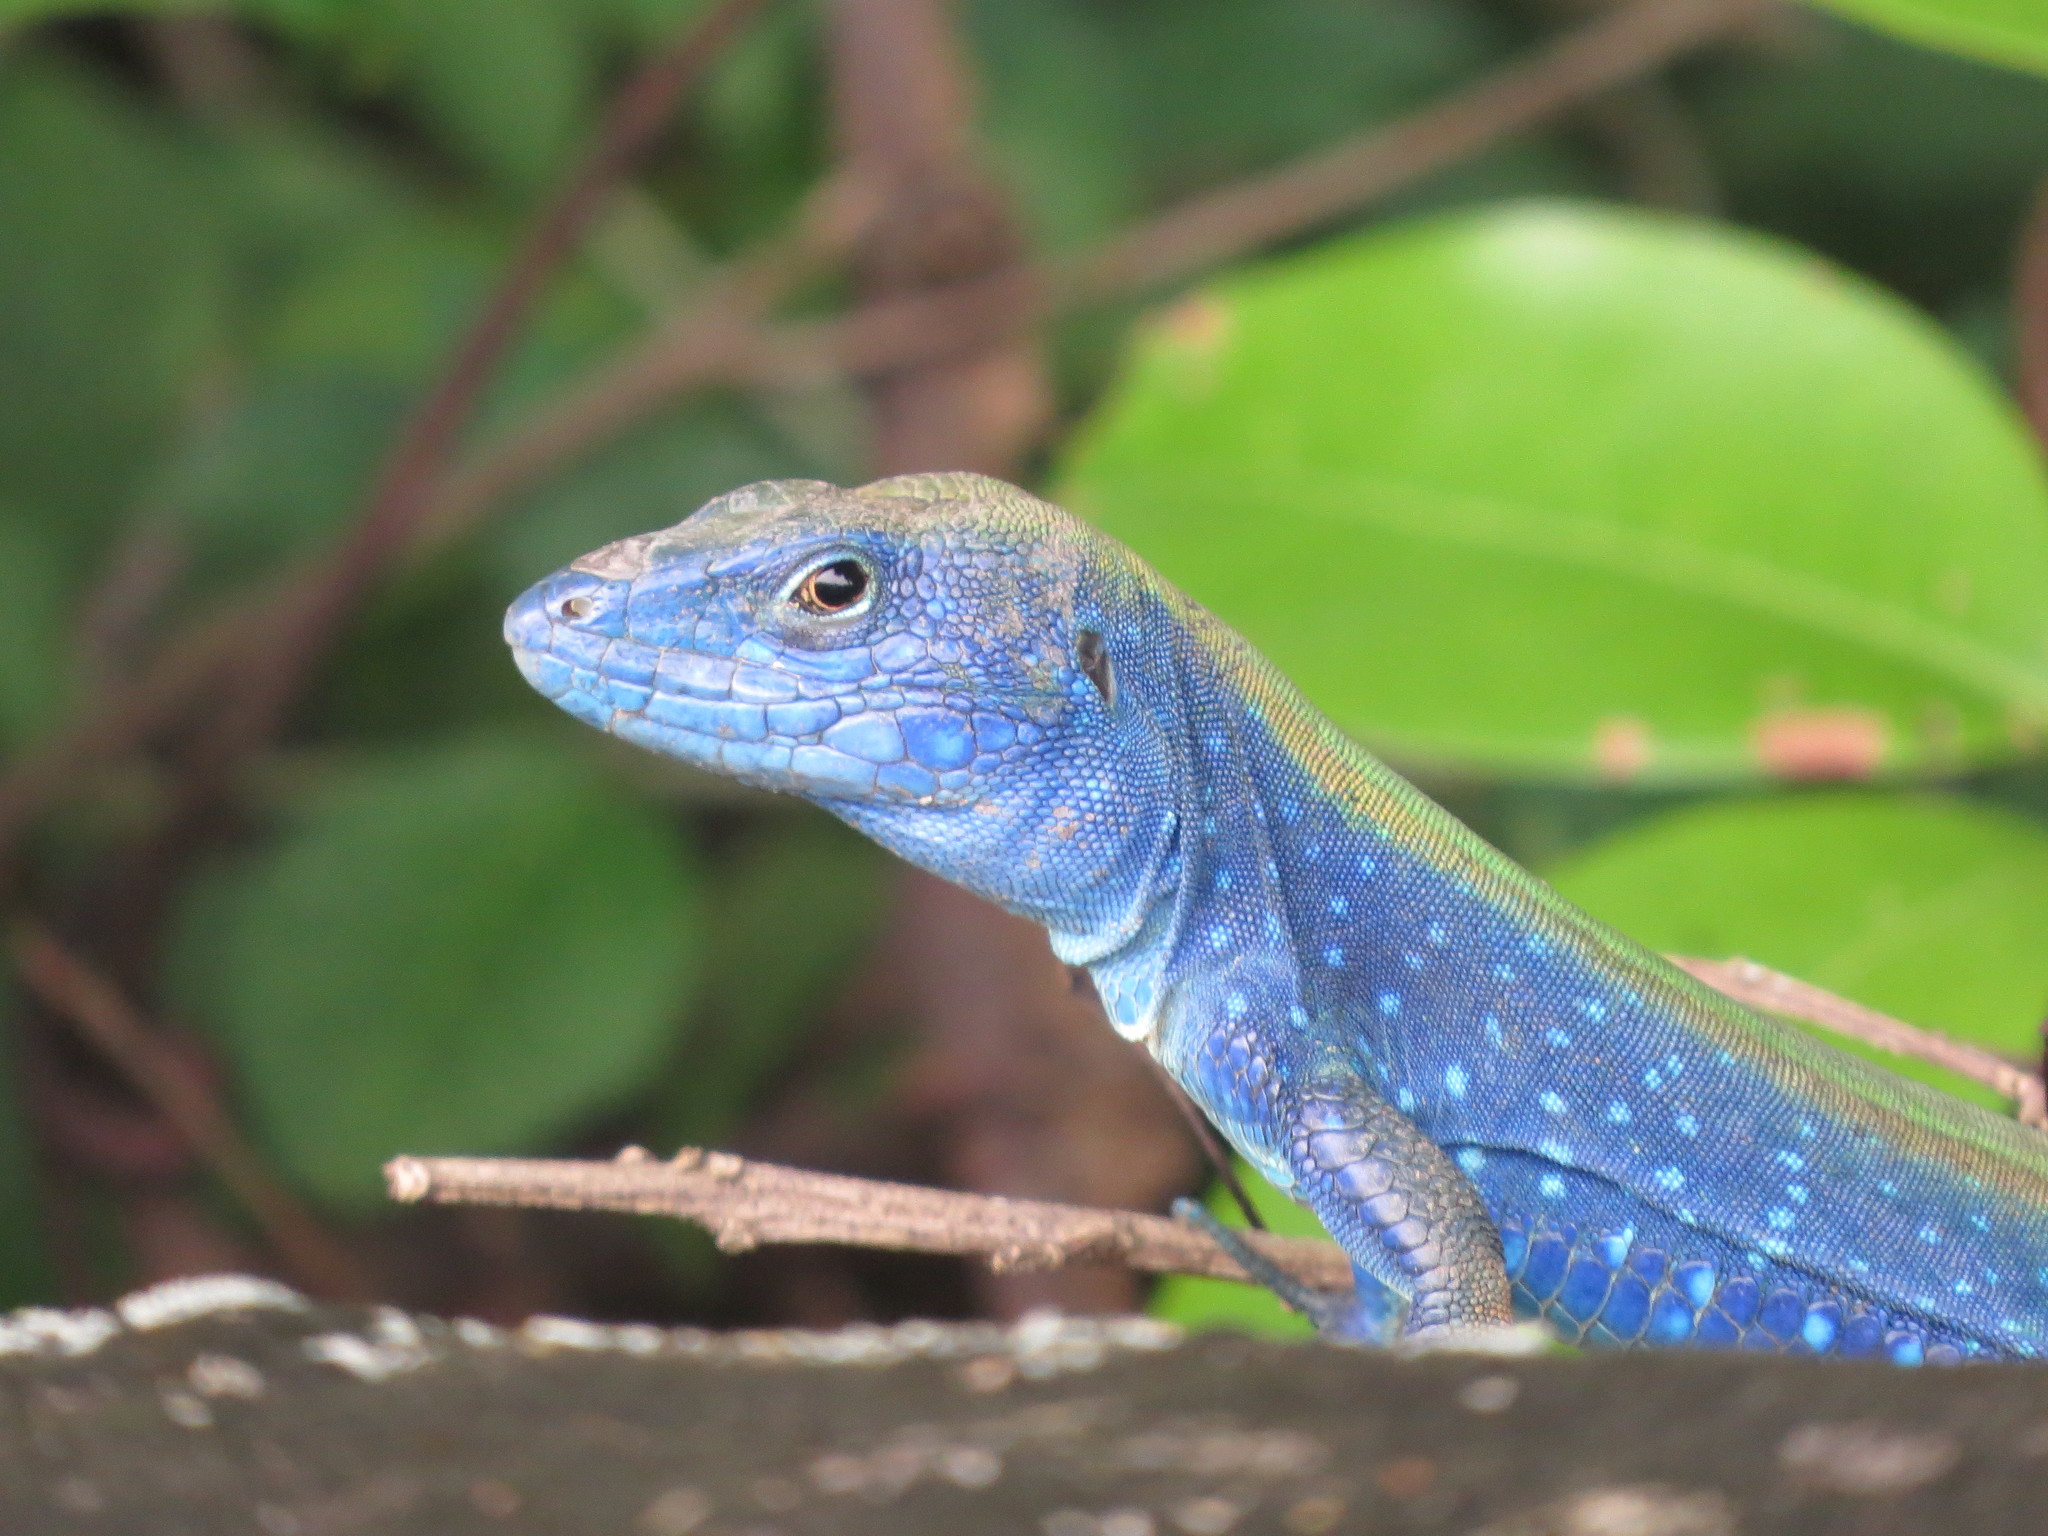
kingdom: Animalia
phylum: Chordata
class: Squamata
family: Teiidae
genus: Cnemidophorus
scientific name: Cnemidophorus espeuti
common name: Rainbow lizard
